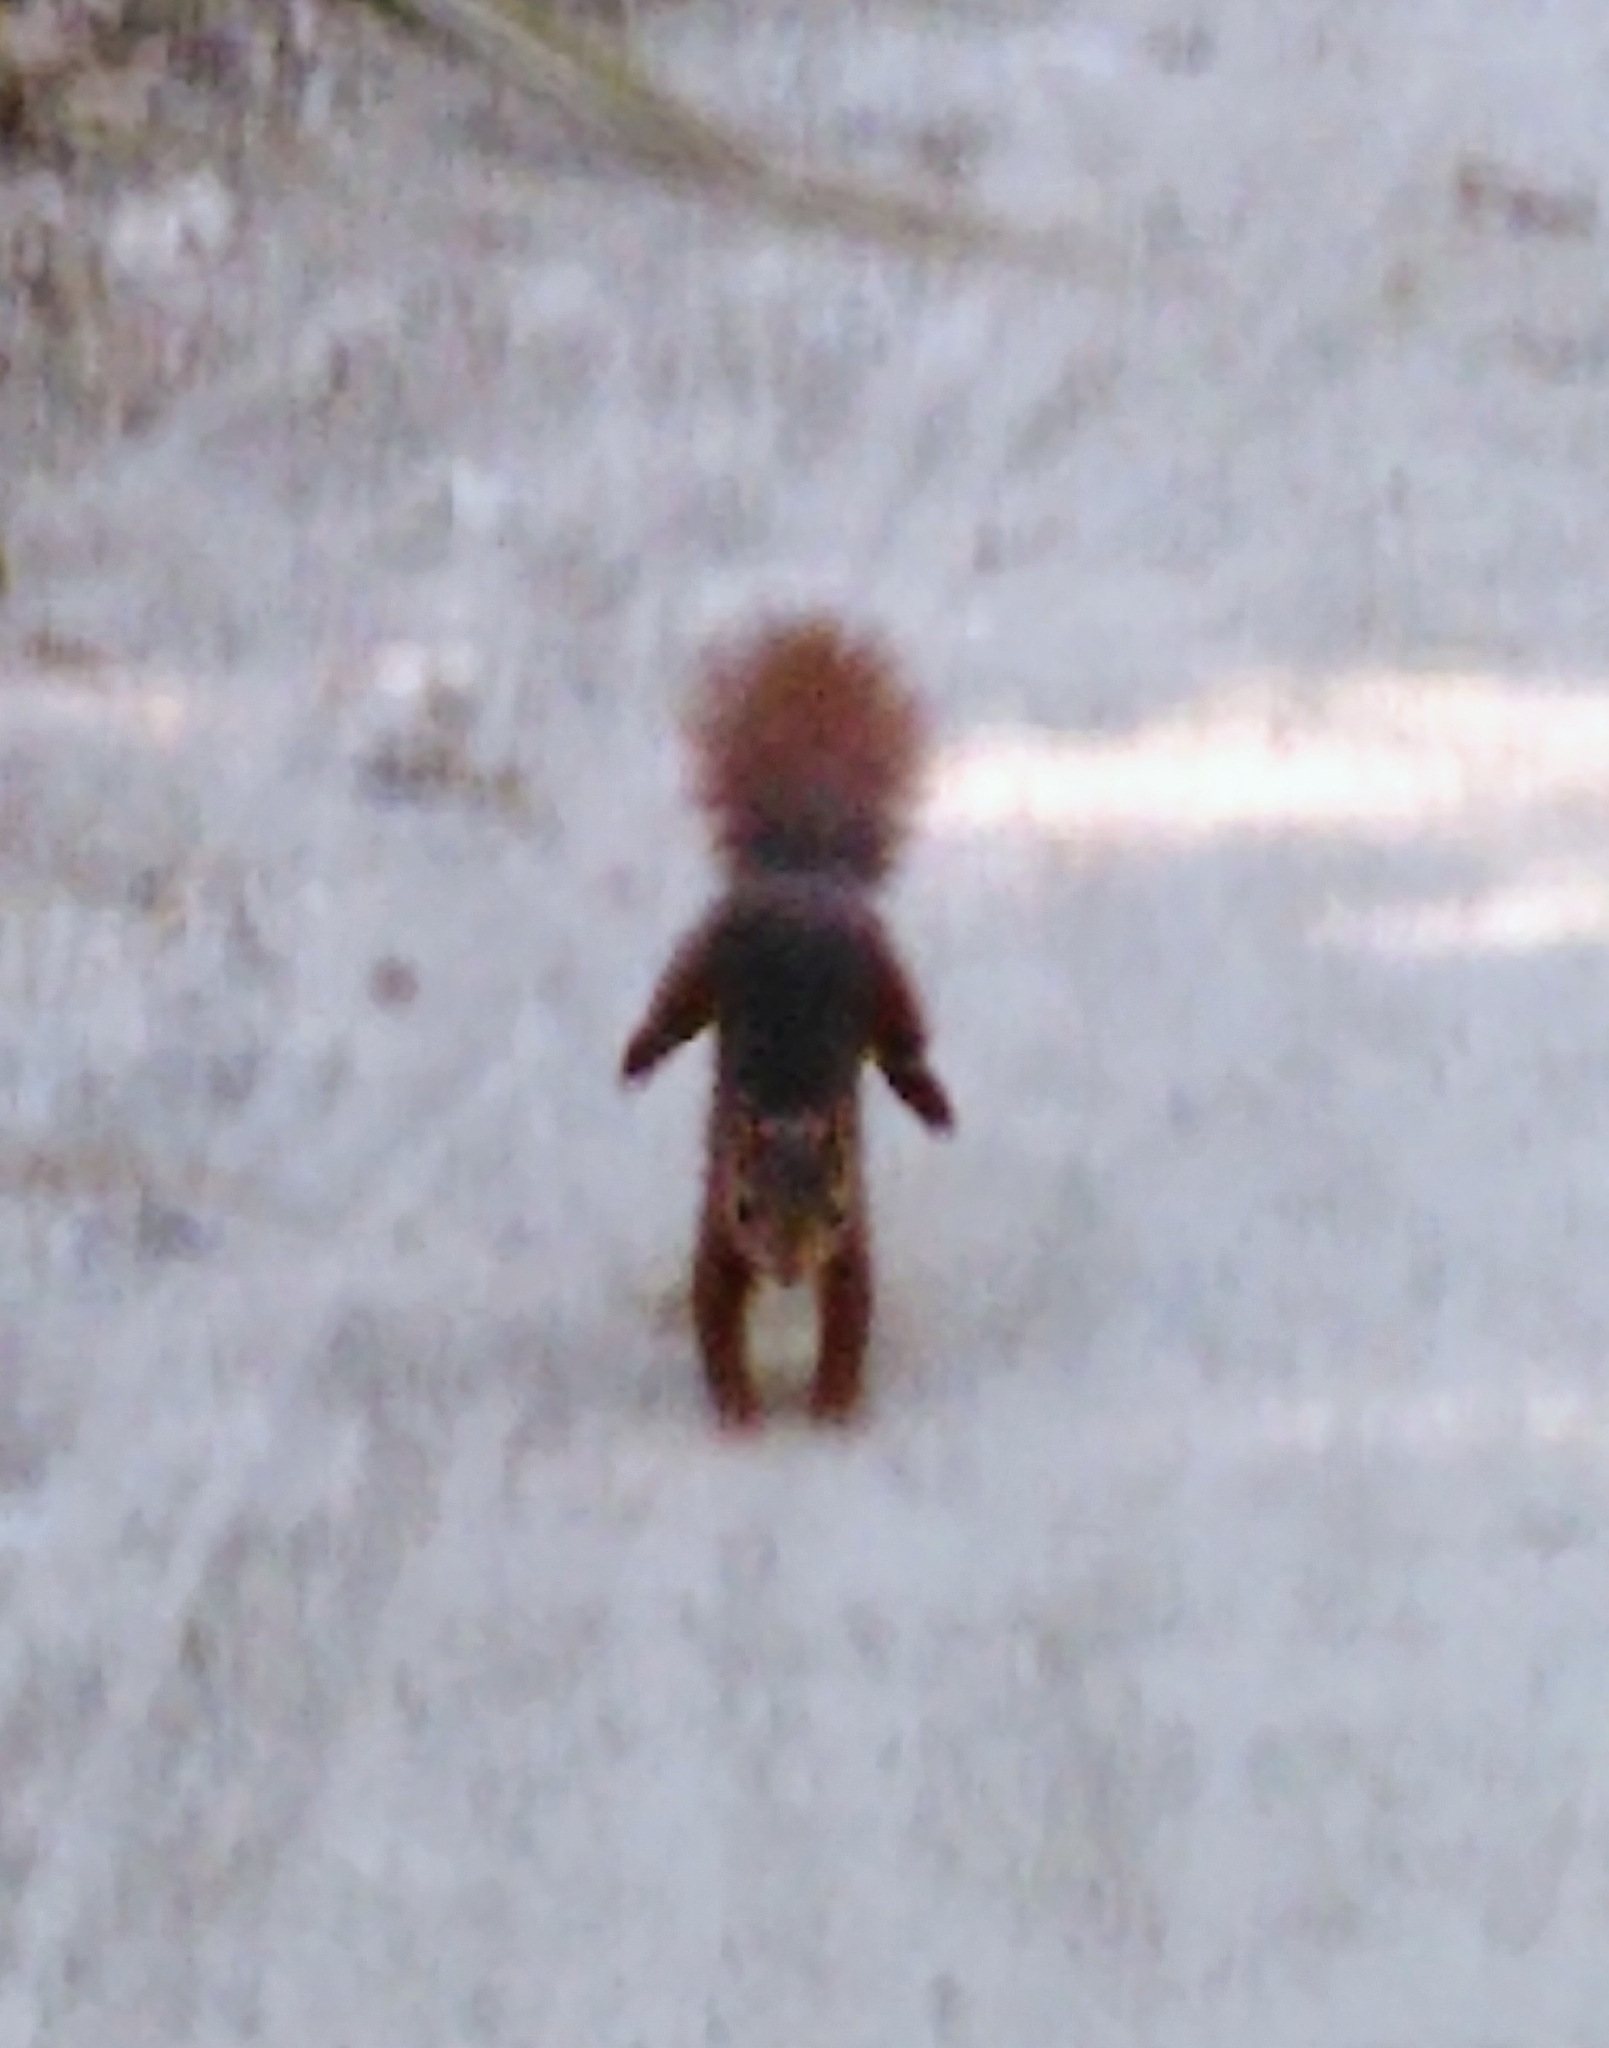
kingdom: Animalia
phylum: Chordata
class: Mammalia
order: Rodentia
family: Sciuridae
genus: Sciurus
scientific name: Sciurus vulgaris
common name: Eurasian red squirrel
